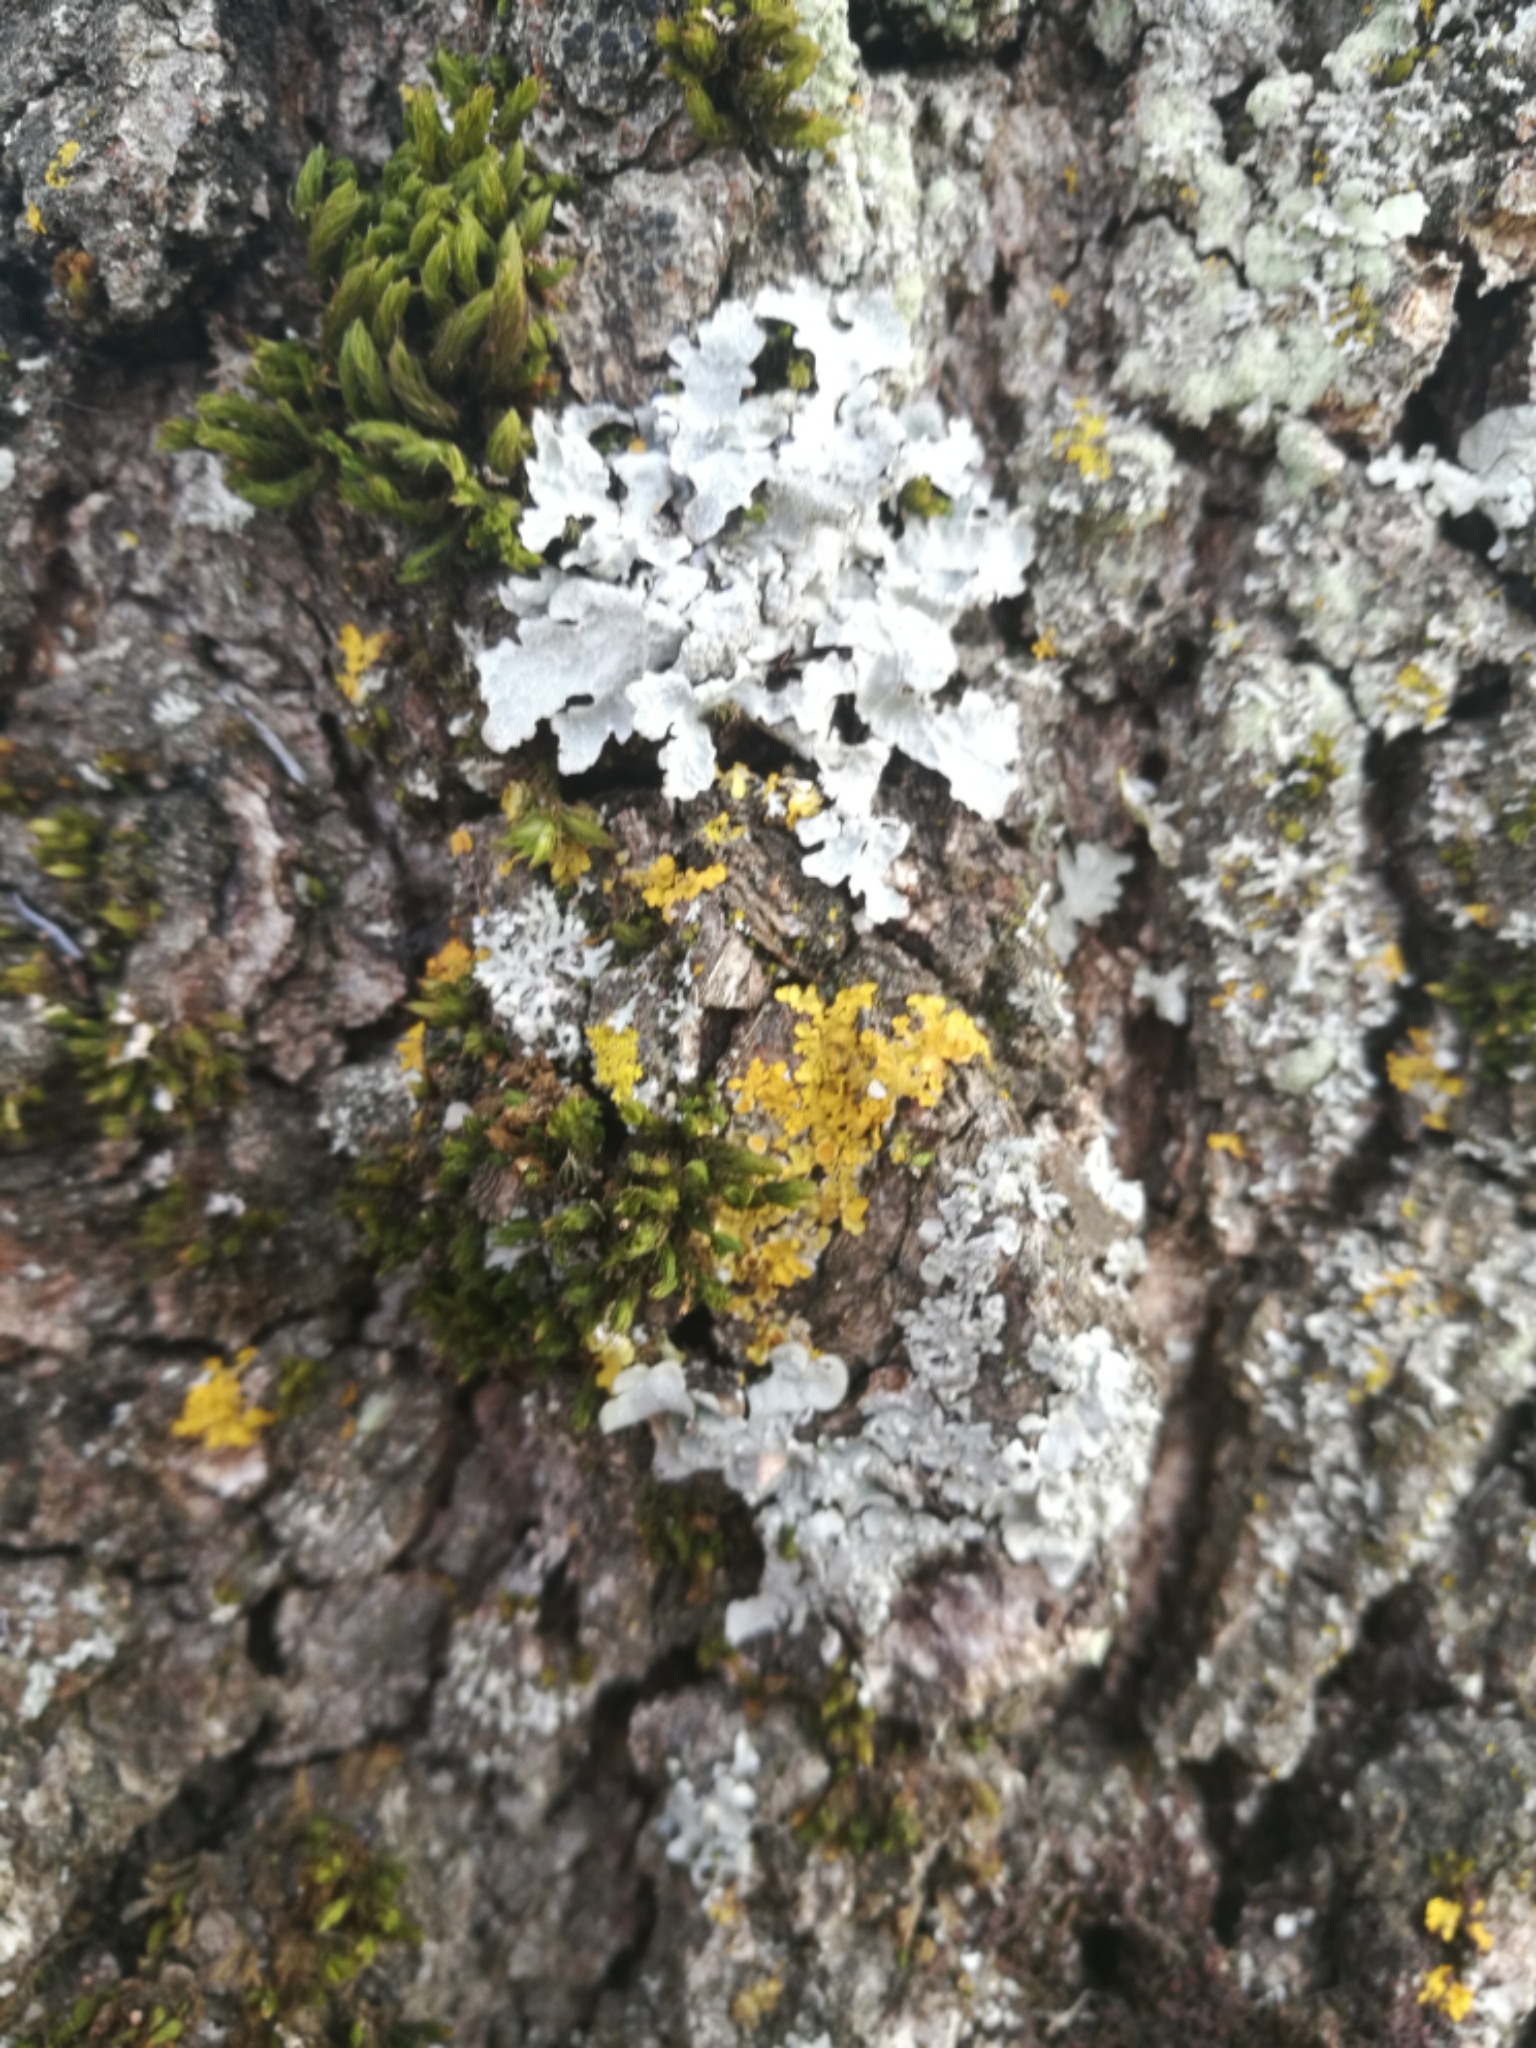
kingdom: Fungi
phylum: Ascomycota
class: Lecanoromycetes
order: Teloschistales
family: Teloschistaceae
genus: Xanthoria
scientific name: Xanthoria parietina
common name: Common orange lichen
